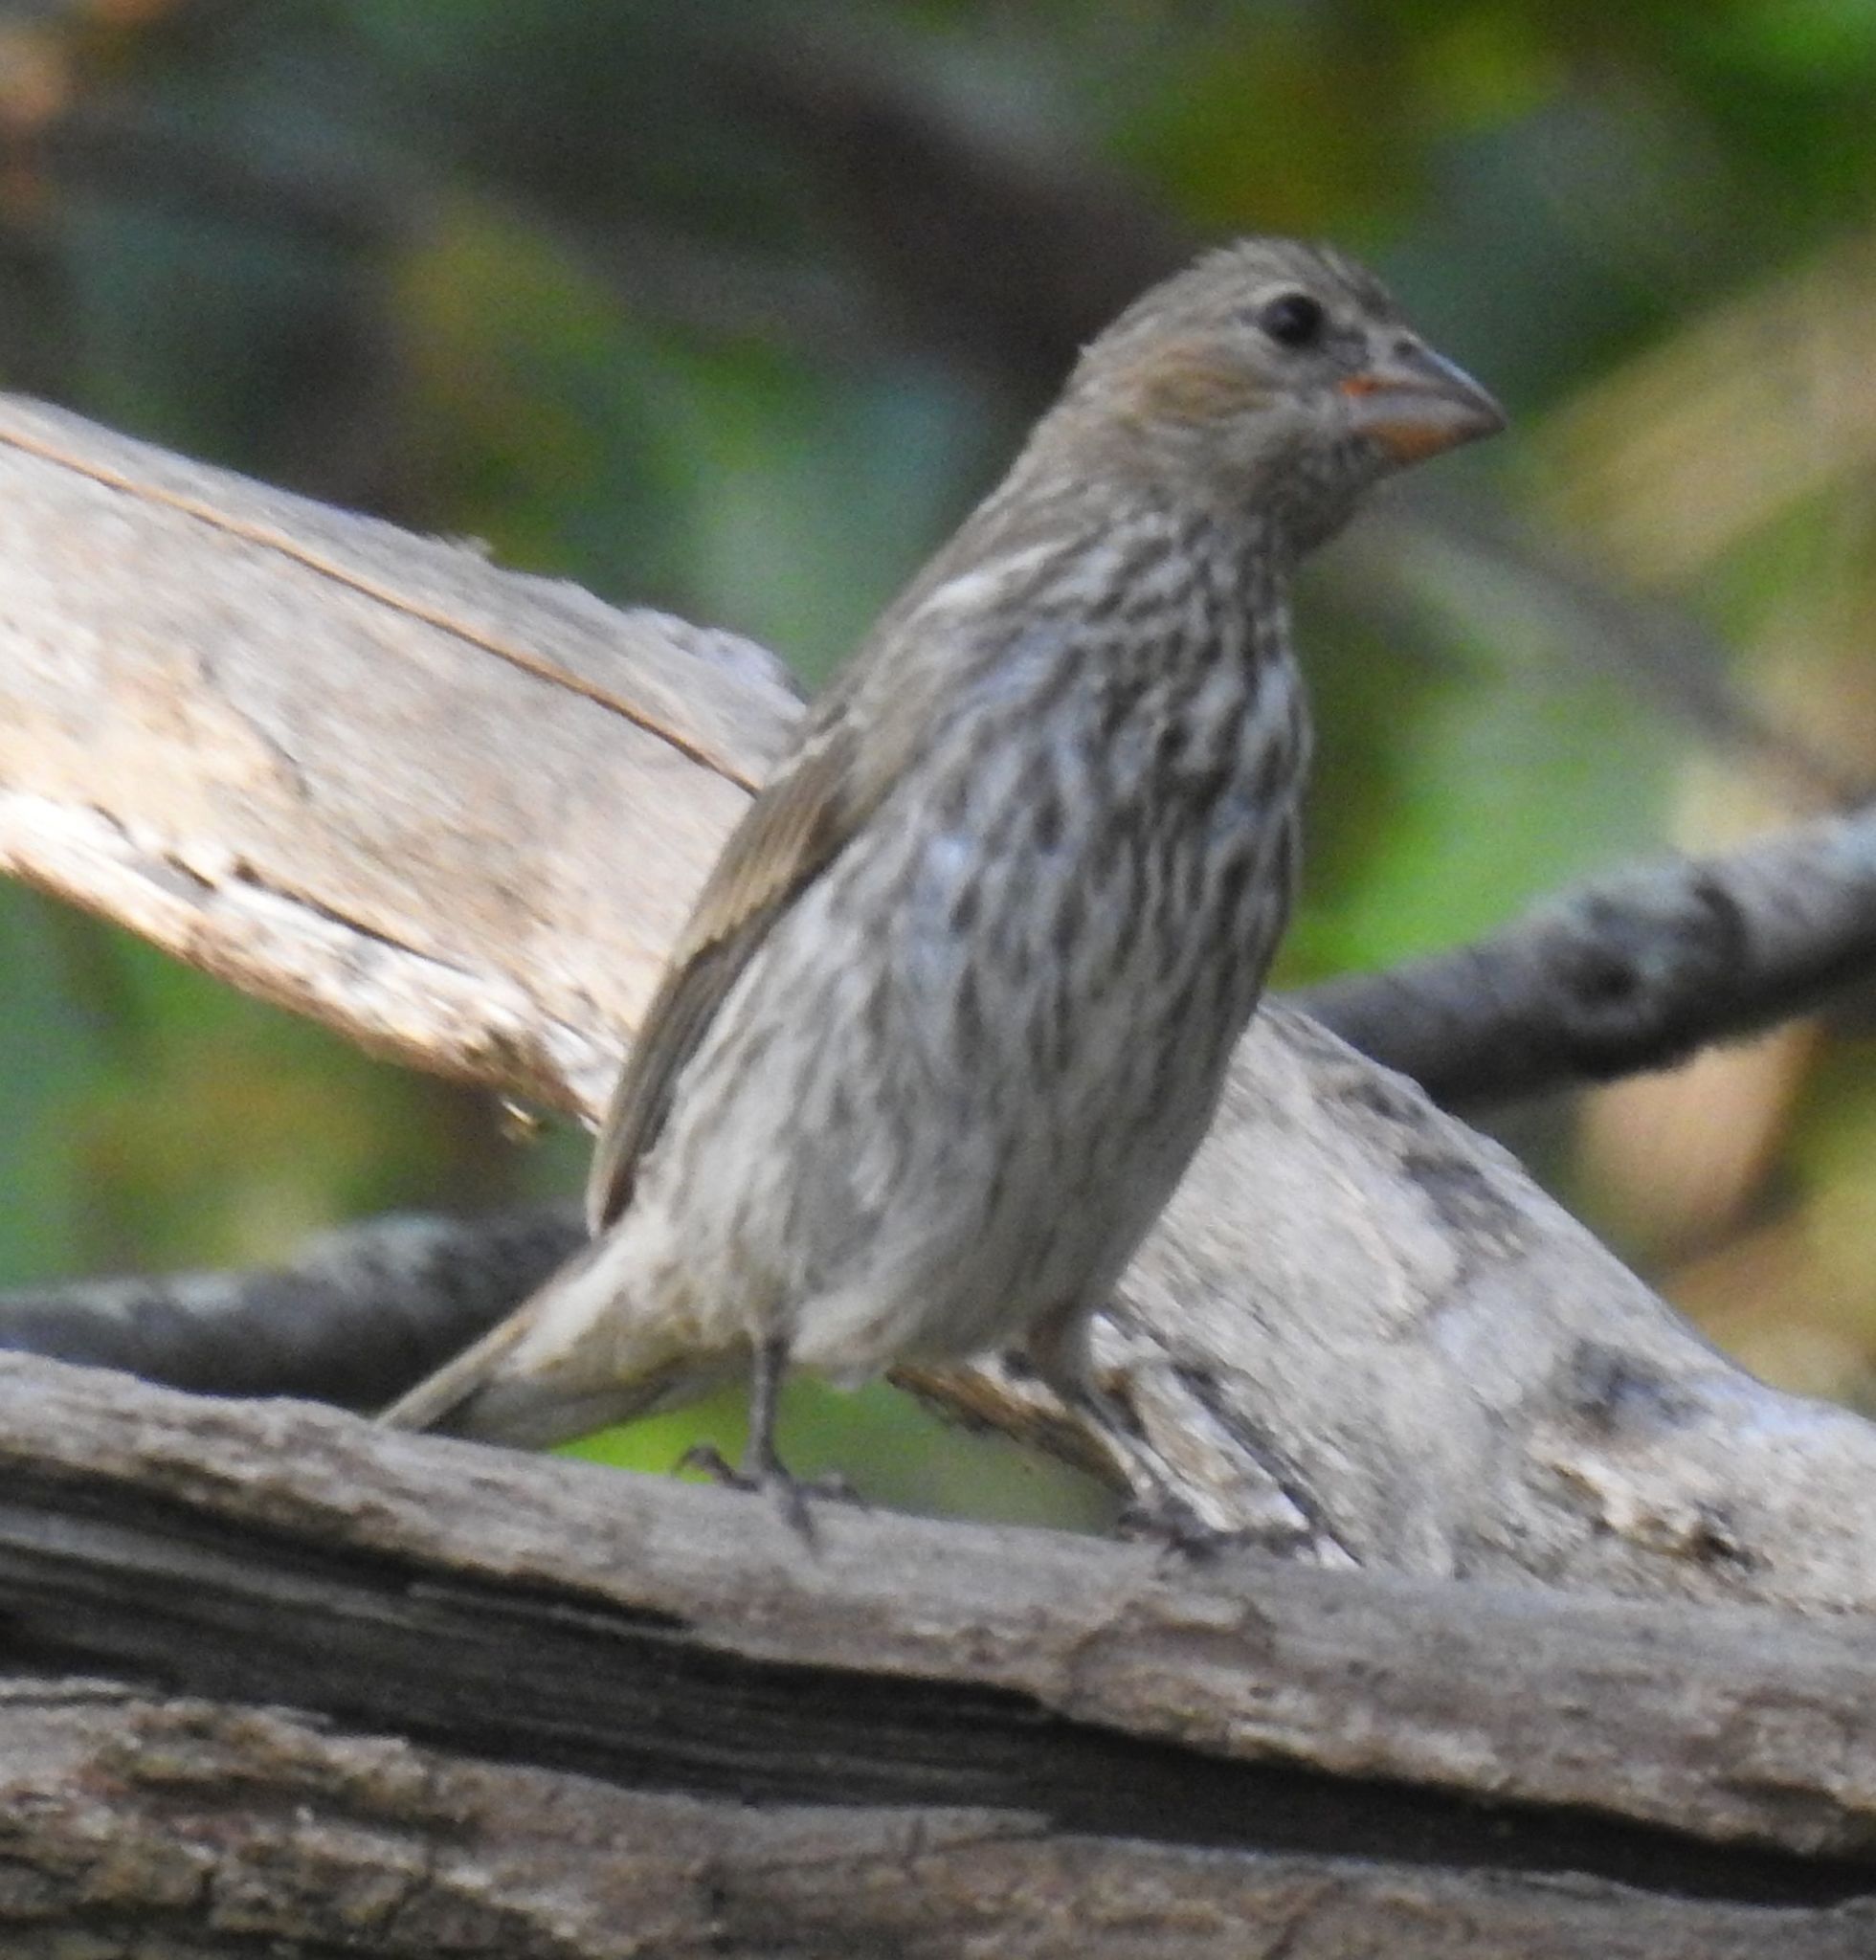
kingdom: Animalia
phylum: Chordata
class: Aves
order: Passeriformes
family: Fringillidae
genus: Haemorhous
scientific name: Haemorhous mexicanus
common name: House finch
